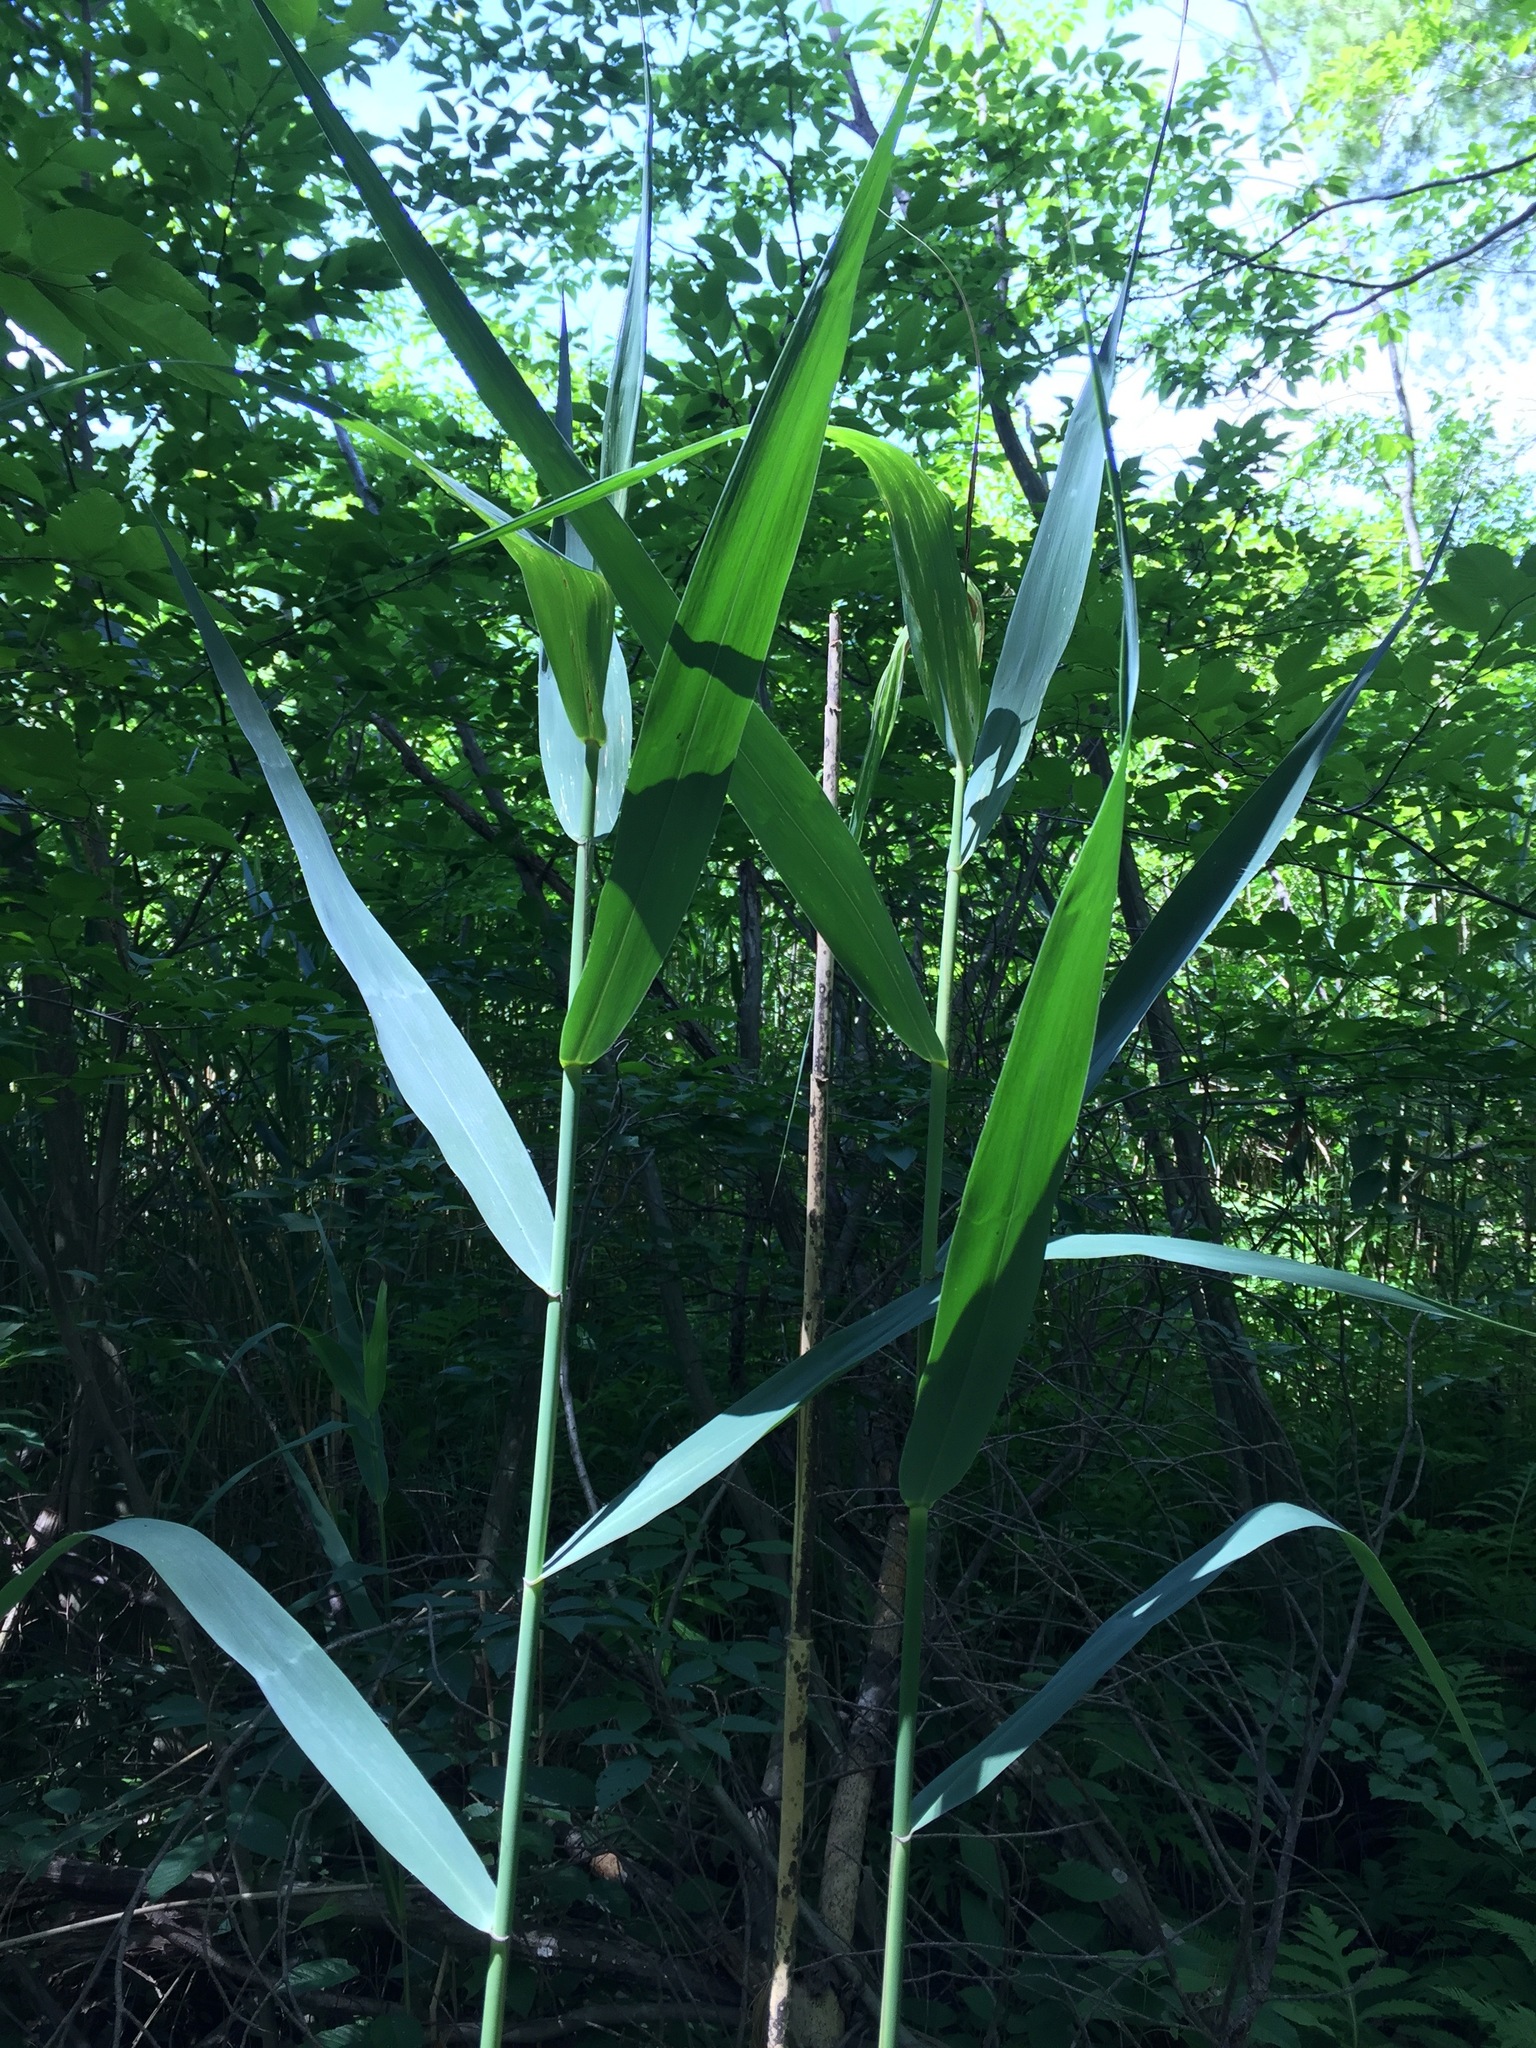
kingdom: Plantae
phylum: Tracheophyta
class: Liliopsida
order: Poales
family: Poaceae
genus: Phragmites
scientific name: Phragmites australis
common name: Common reed
